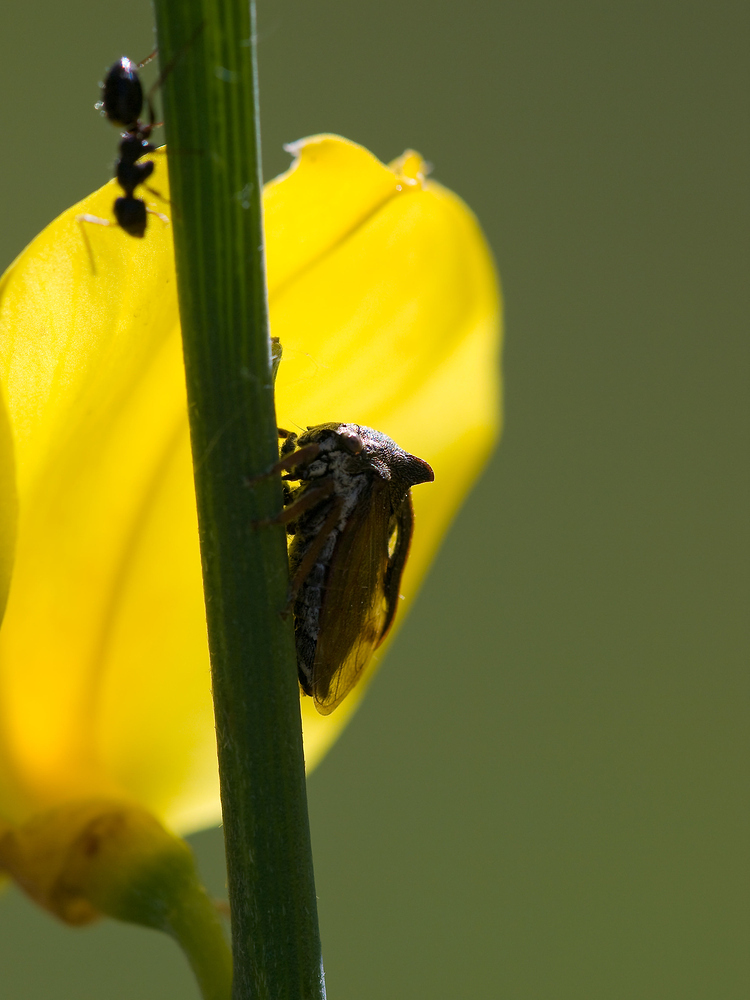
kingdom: Animalia
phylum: Arthropoda
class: Insecta
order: Hemiptera
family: Membracidae
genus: Centrotus
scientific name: Centrotus cornuta
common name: Treehopper
